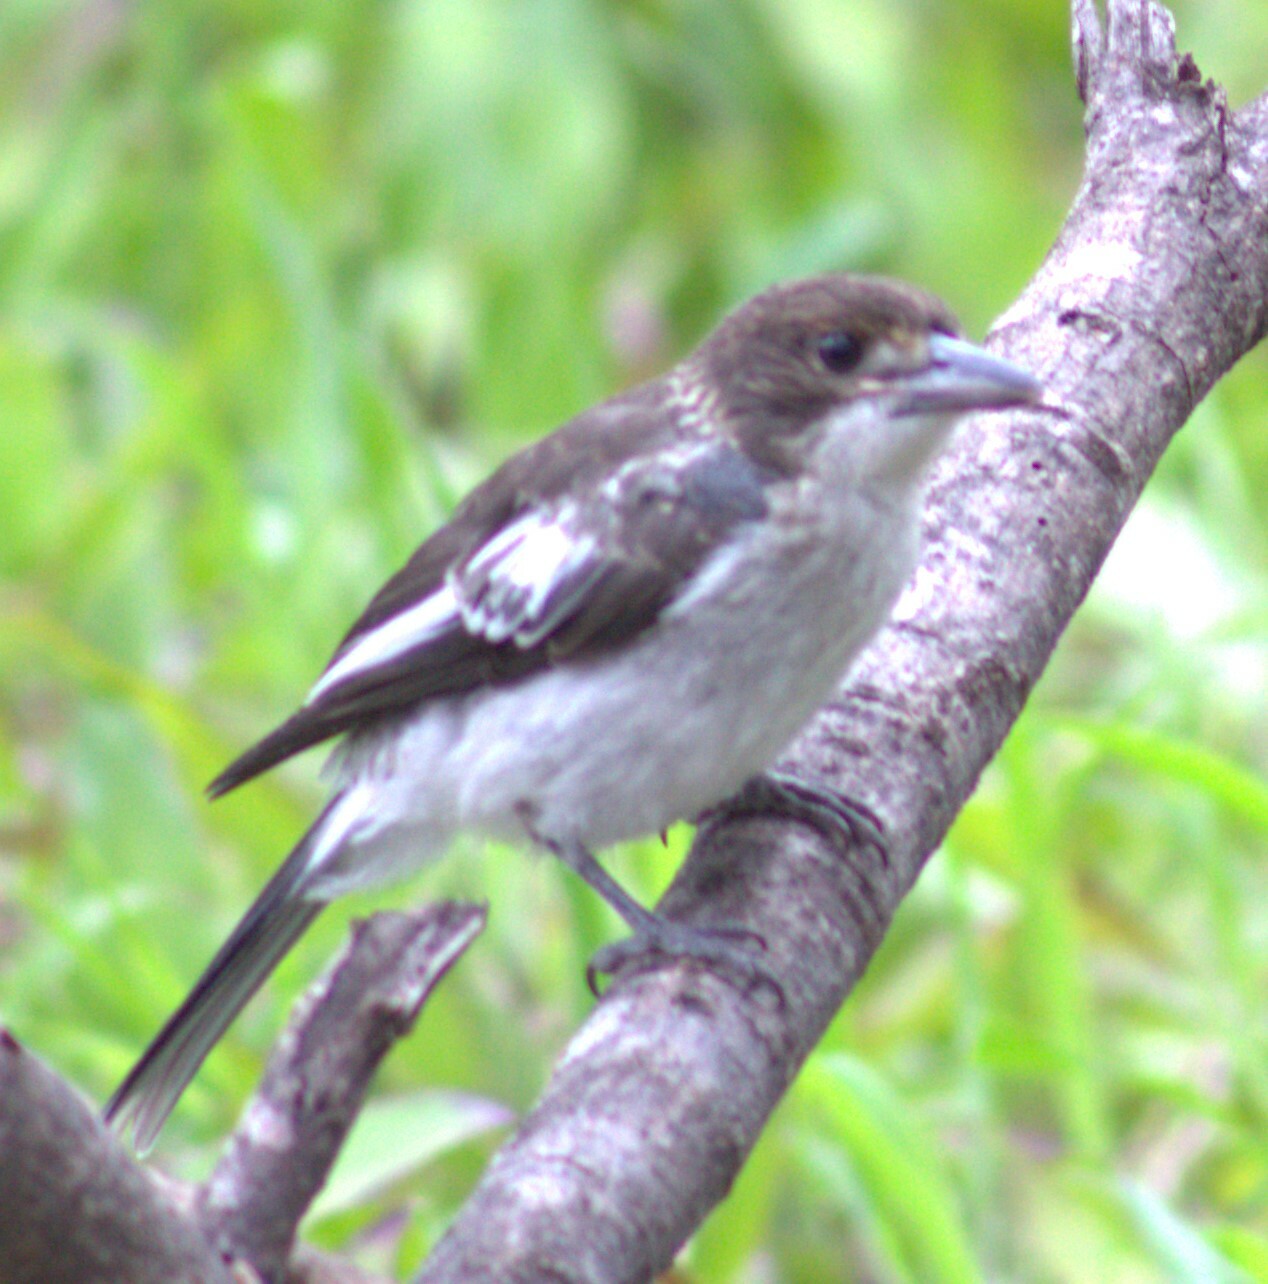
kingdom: Animalia
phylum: Chordata
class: Aves
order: Passeriformes
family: Cracticidae
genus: Cracticus
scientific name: Cracticus torquatus
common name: Grey butcherbird
